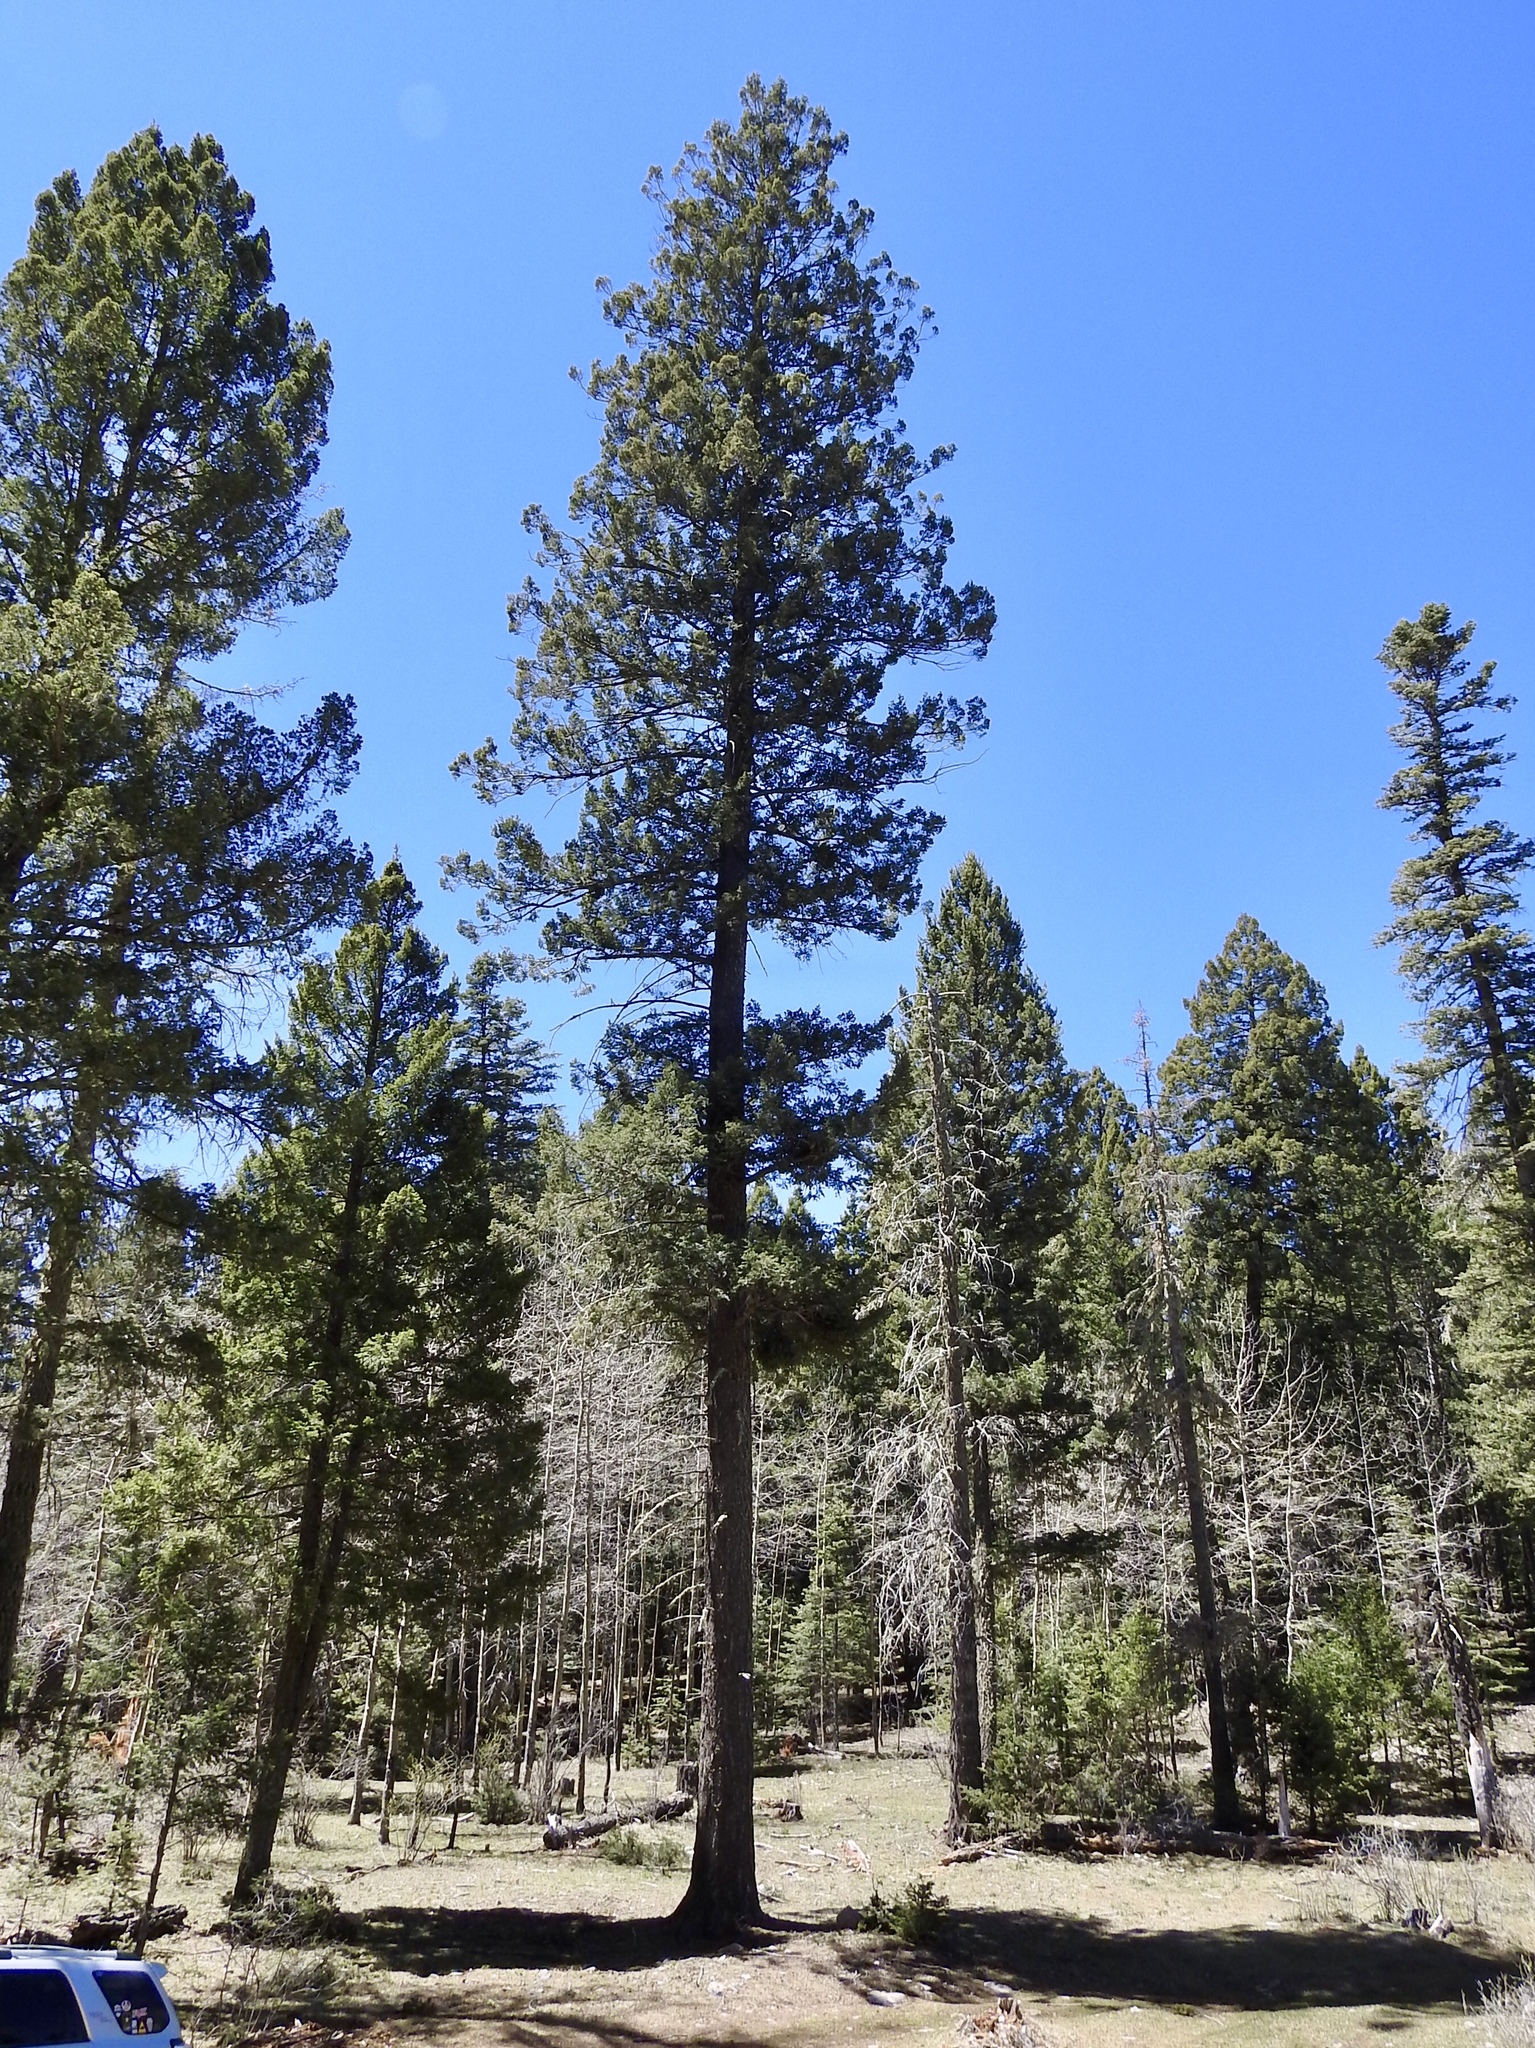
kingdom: Plantae
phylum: Tracheophyta
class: Pinopsida
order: Pinales
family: Pinaceae
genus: Pseudotsuga
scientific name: Pseudotsuga menziesii
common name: Douglas fir
